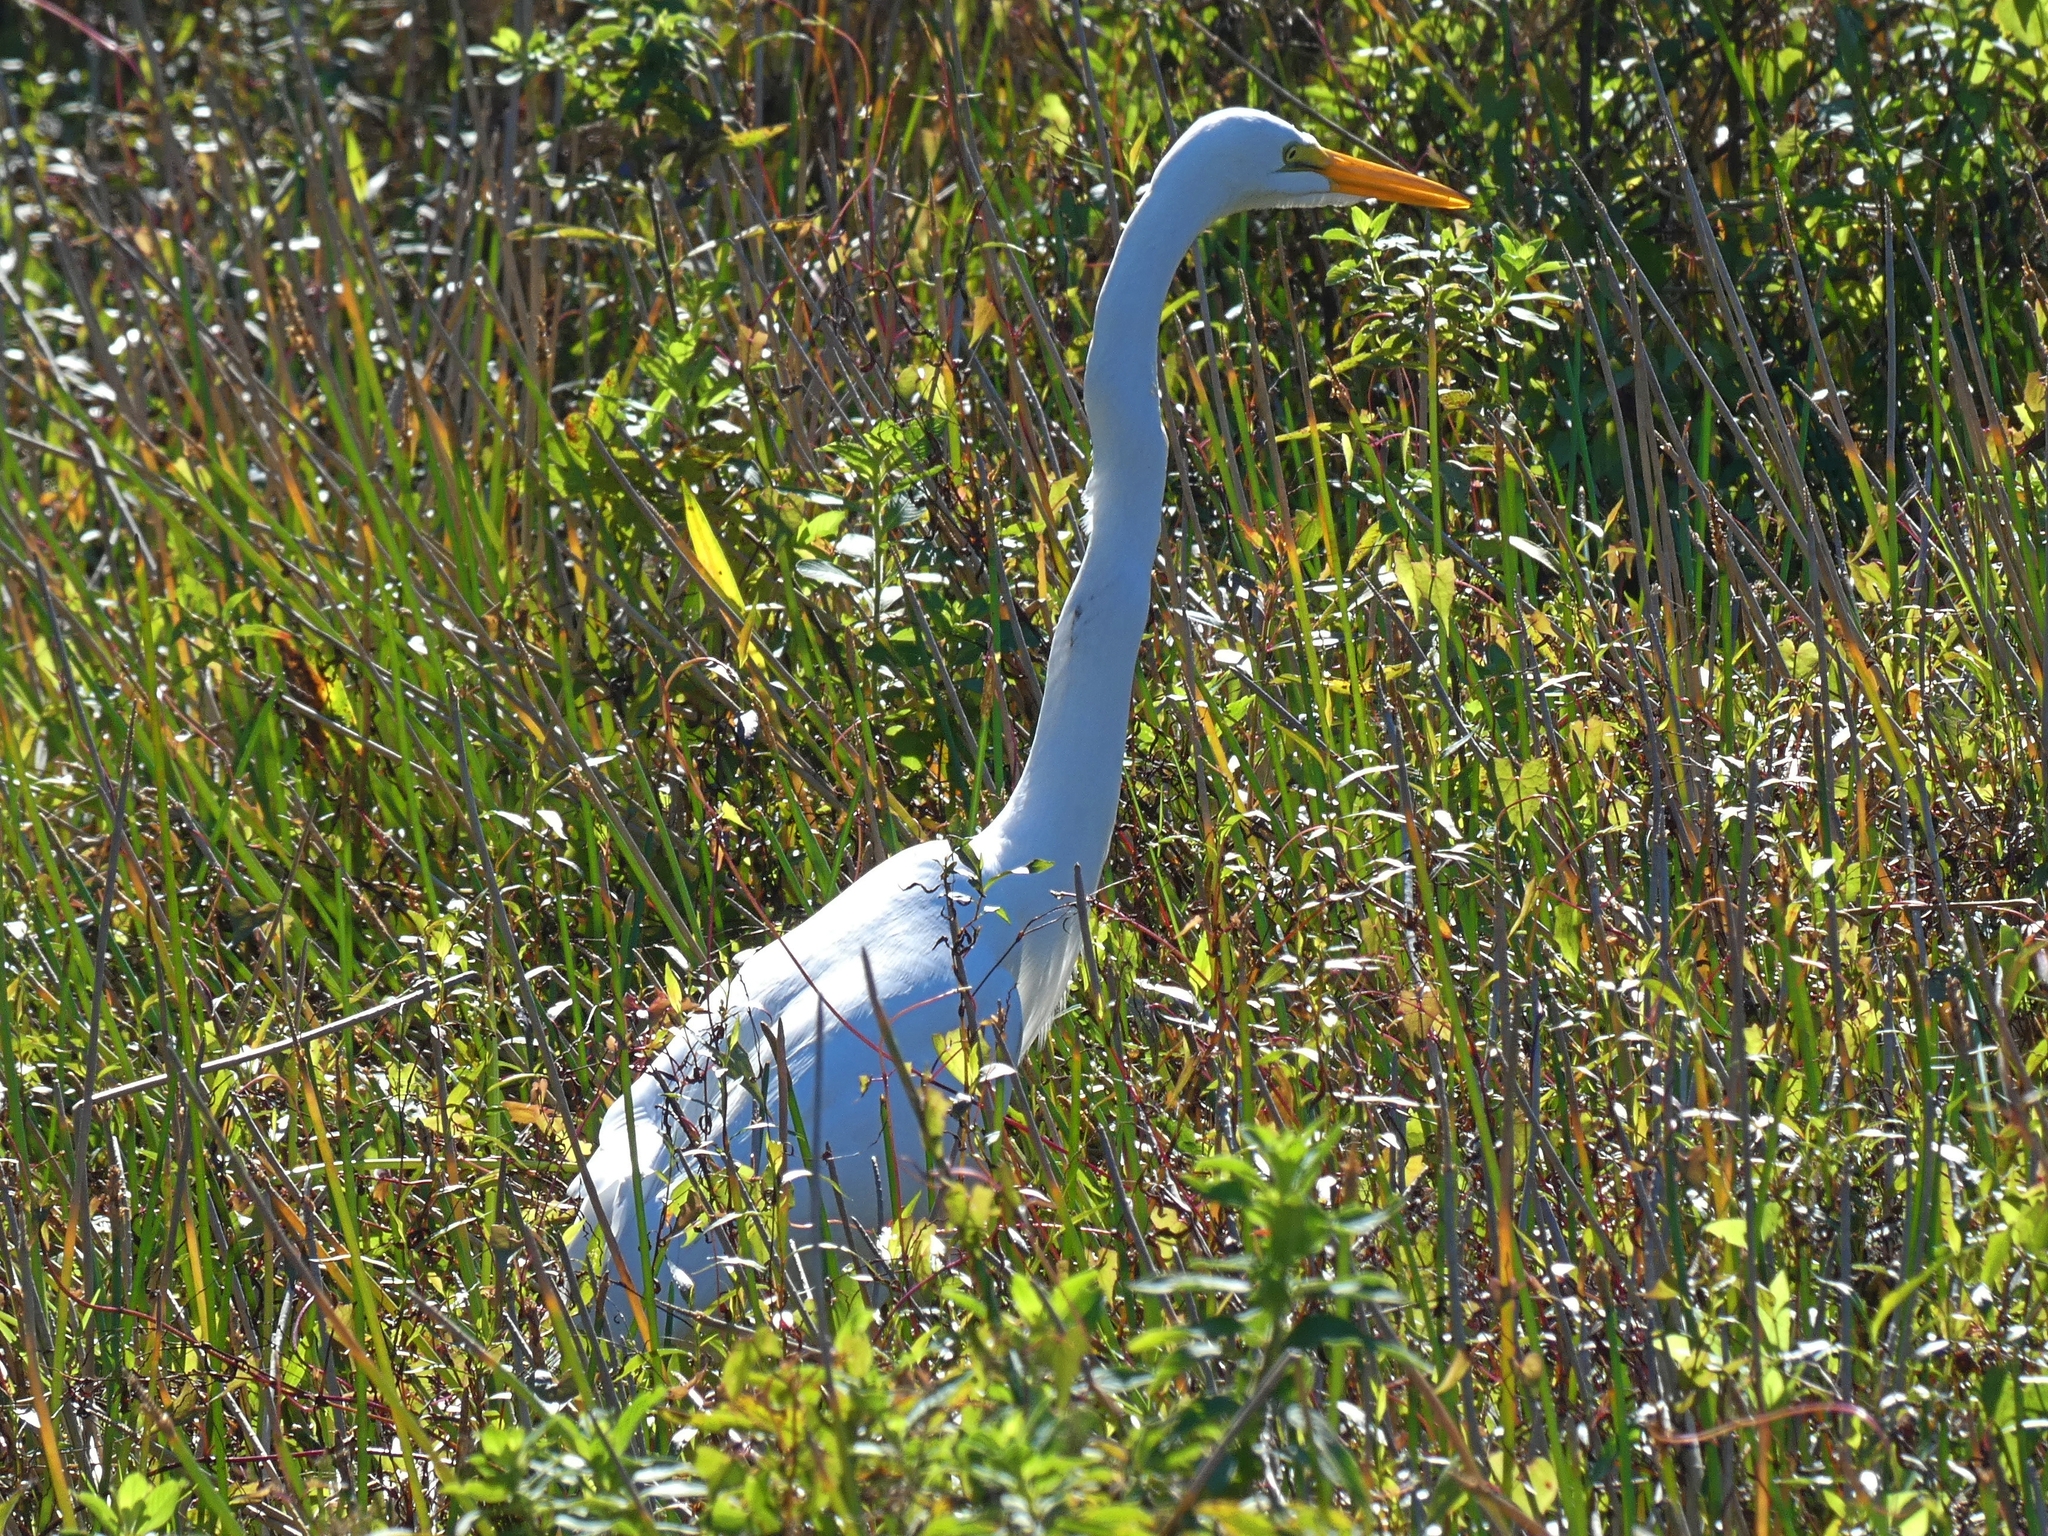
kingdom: Animalia
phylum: Chordata
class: Aves
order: Pelecaniformes
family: Ardeidae
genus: Ardea
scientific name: Ardea alba
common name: Great egret
